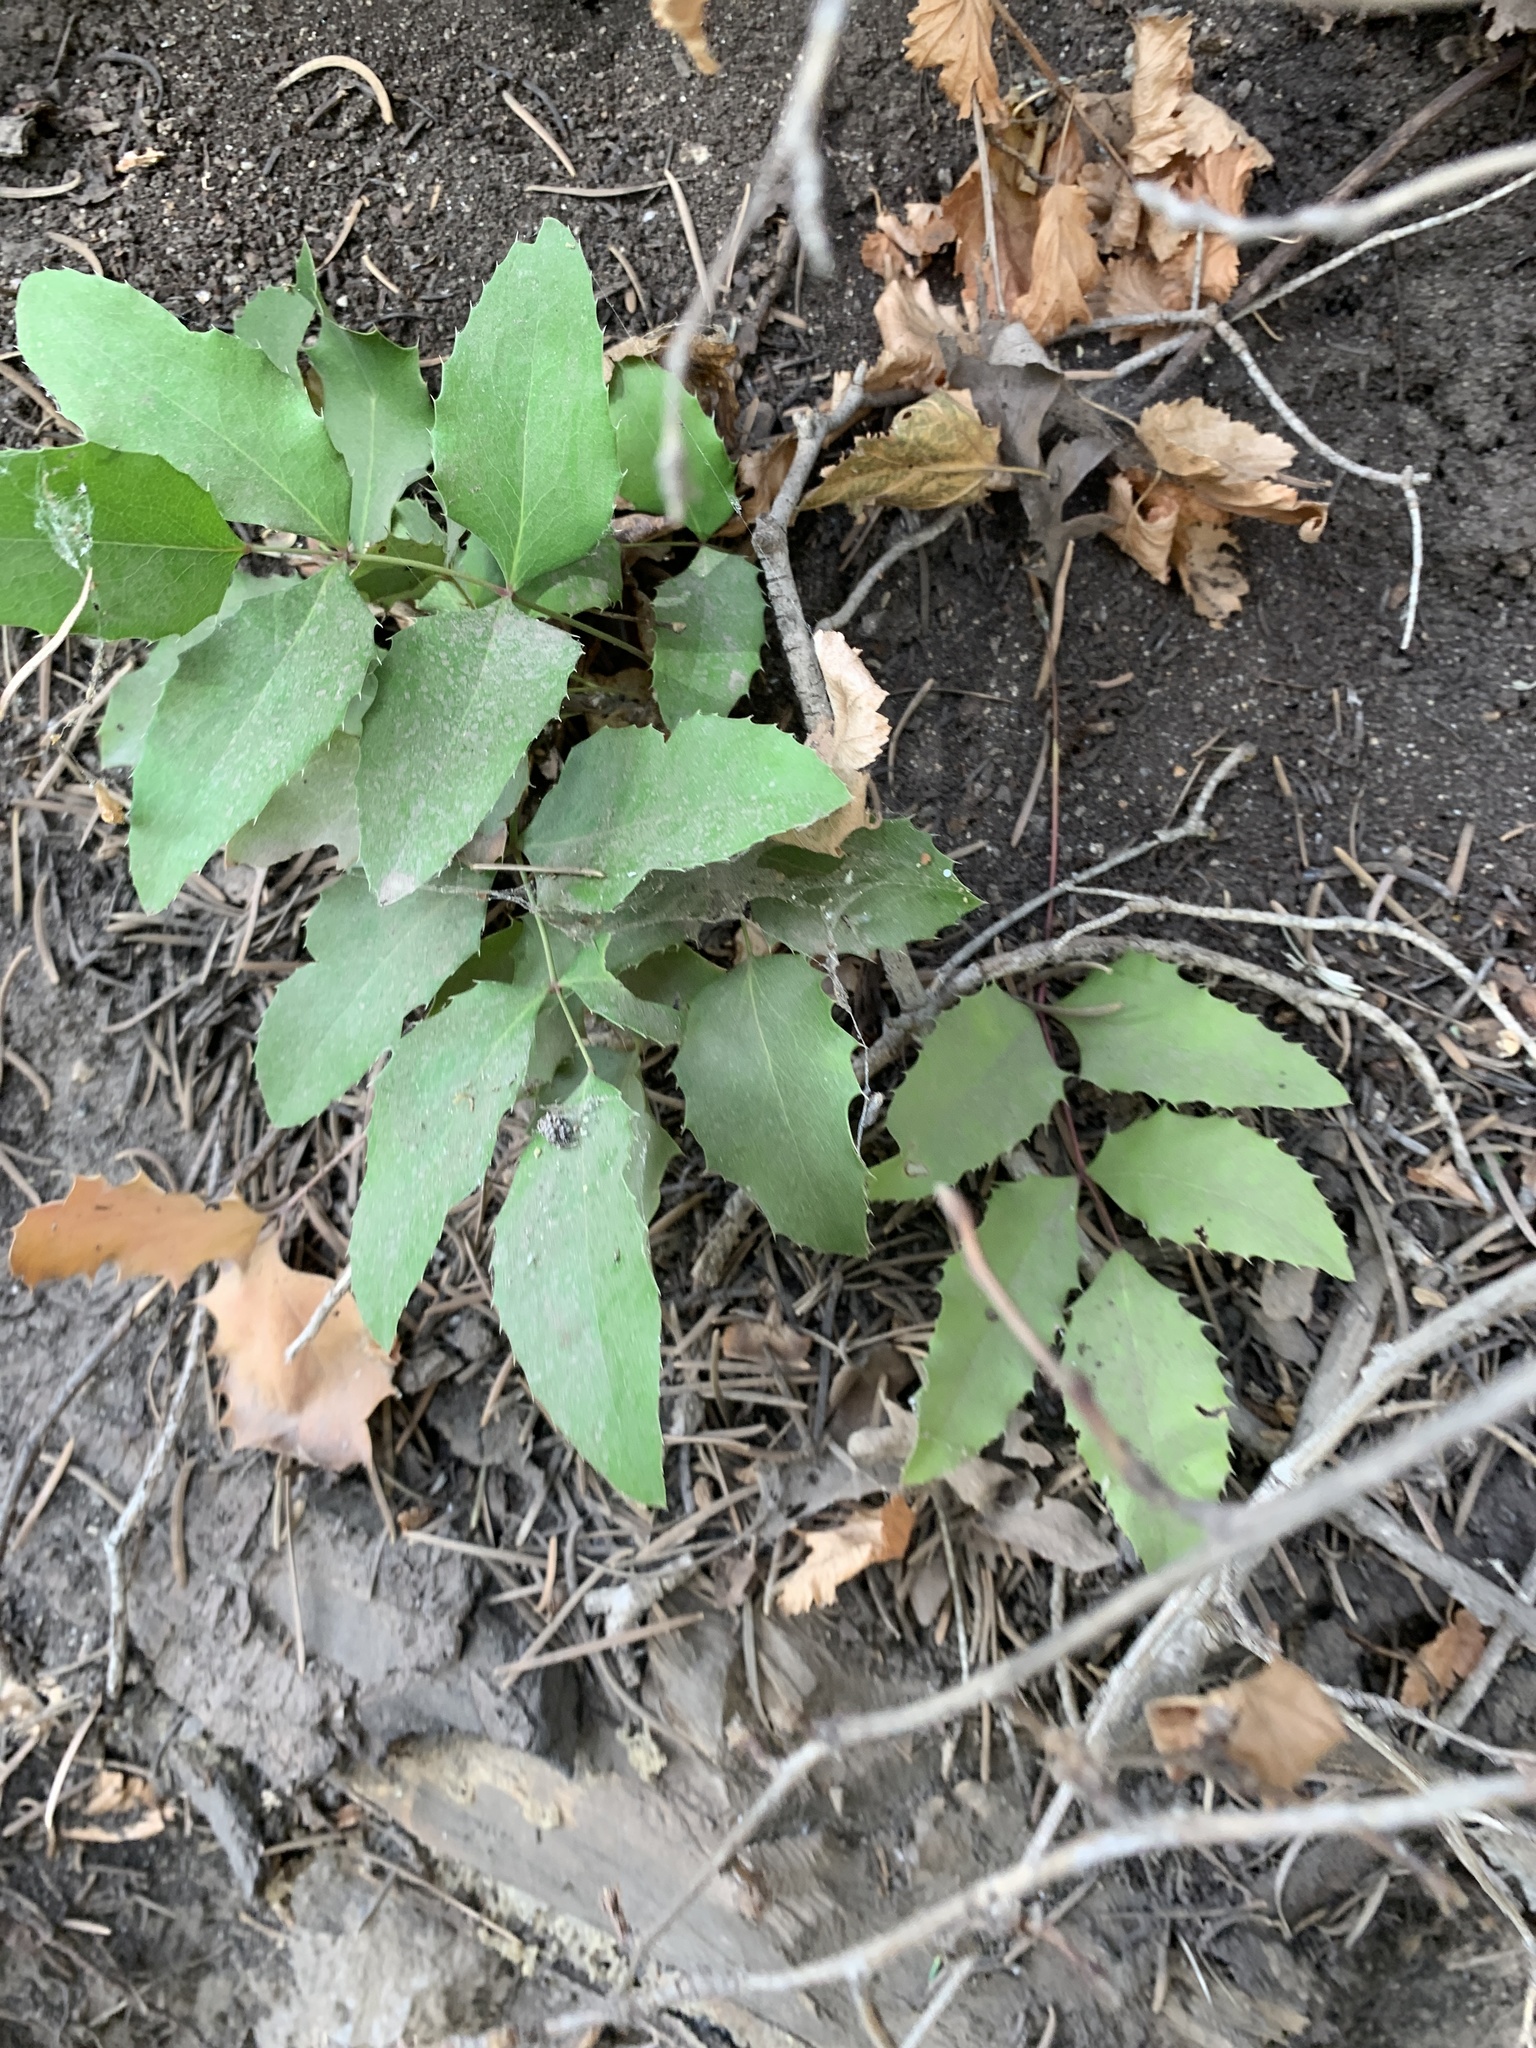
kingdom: Plantae
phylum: Tracheophyta
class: Magnoliopsida
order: Ranunculales
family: Berberidaceae
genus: Mahonia
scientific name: Mahonia repens
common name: Creeping oregon-grape
